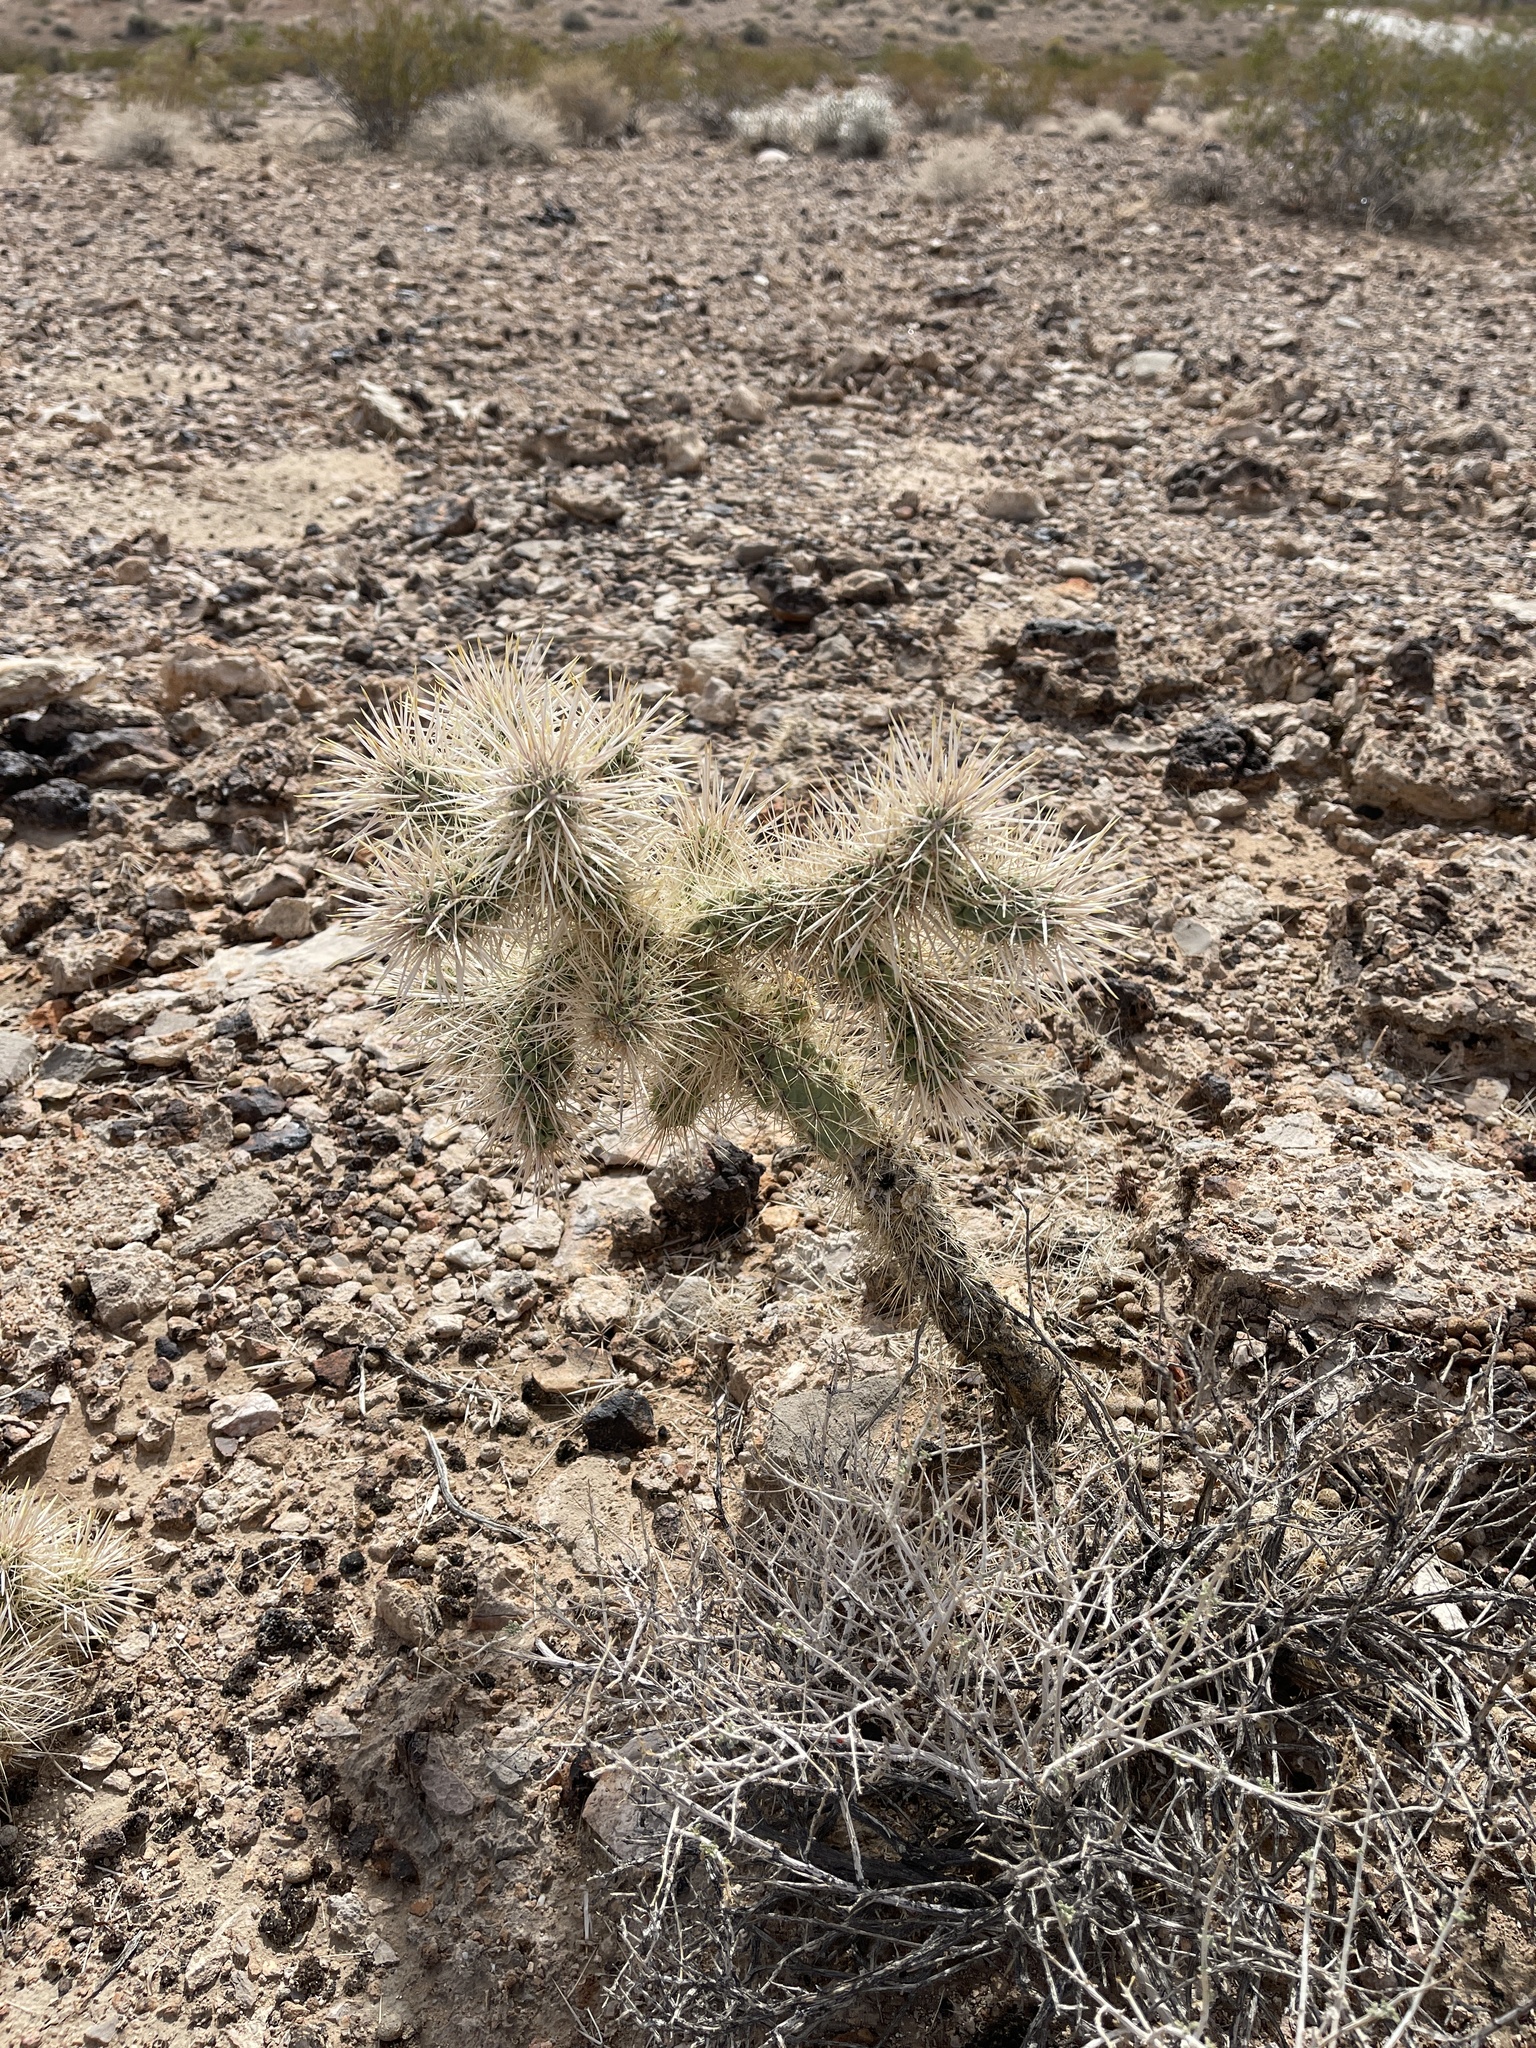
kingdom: Plantae
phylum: Tracheophyta
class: Magnoliopsida
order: Caryophyllales
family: Cactaceae
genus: Cylindropuntia
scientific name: Cylindropuntia echinocarpa
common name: Ground cholla
